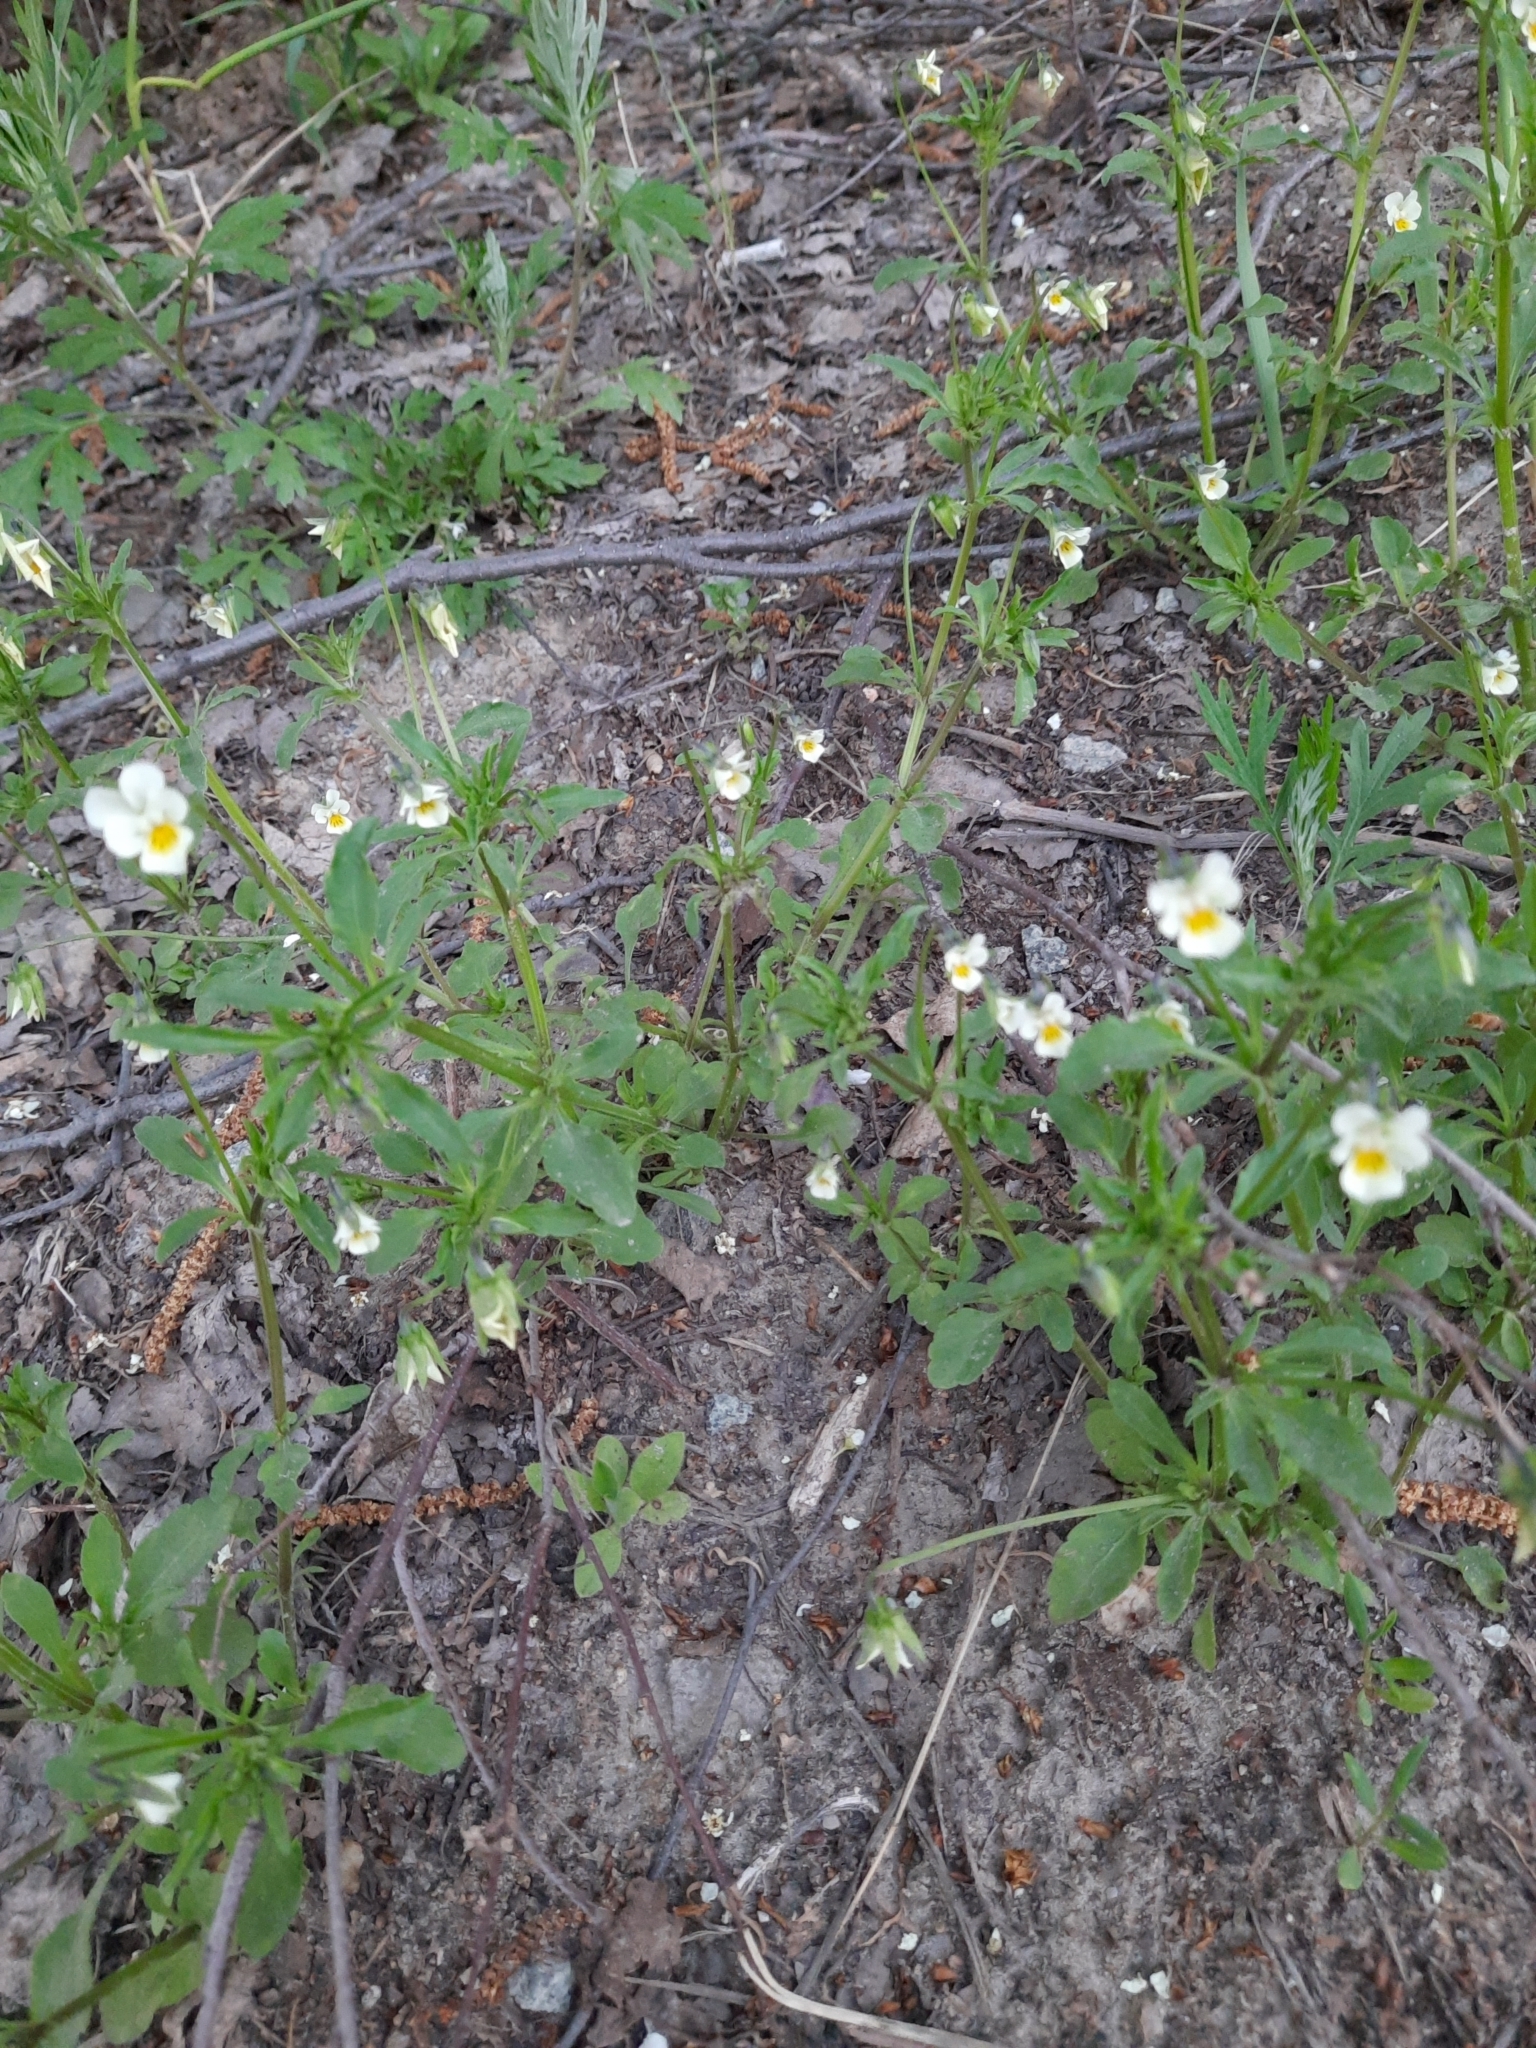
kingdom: Plantae
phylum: Tracheophyta
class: Magnoliopsida
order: Malpighiales
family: Violaceae
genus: Viola
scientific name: Viola arvensis
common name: Field pansy
